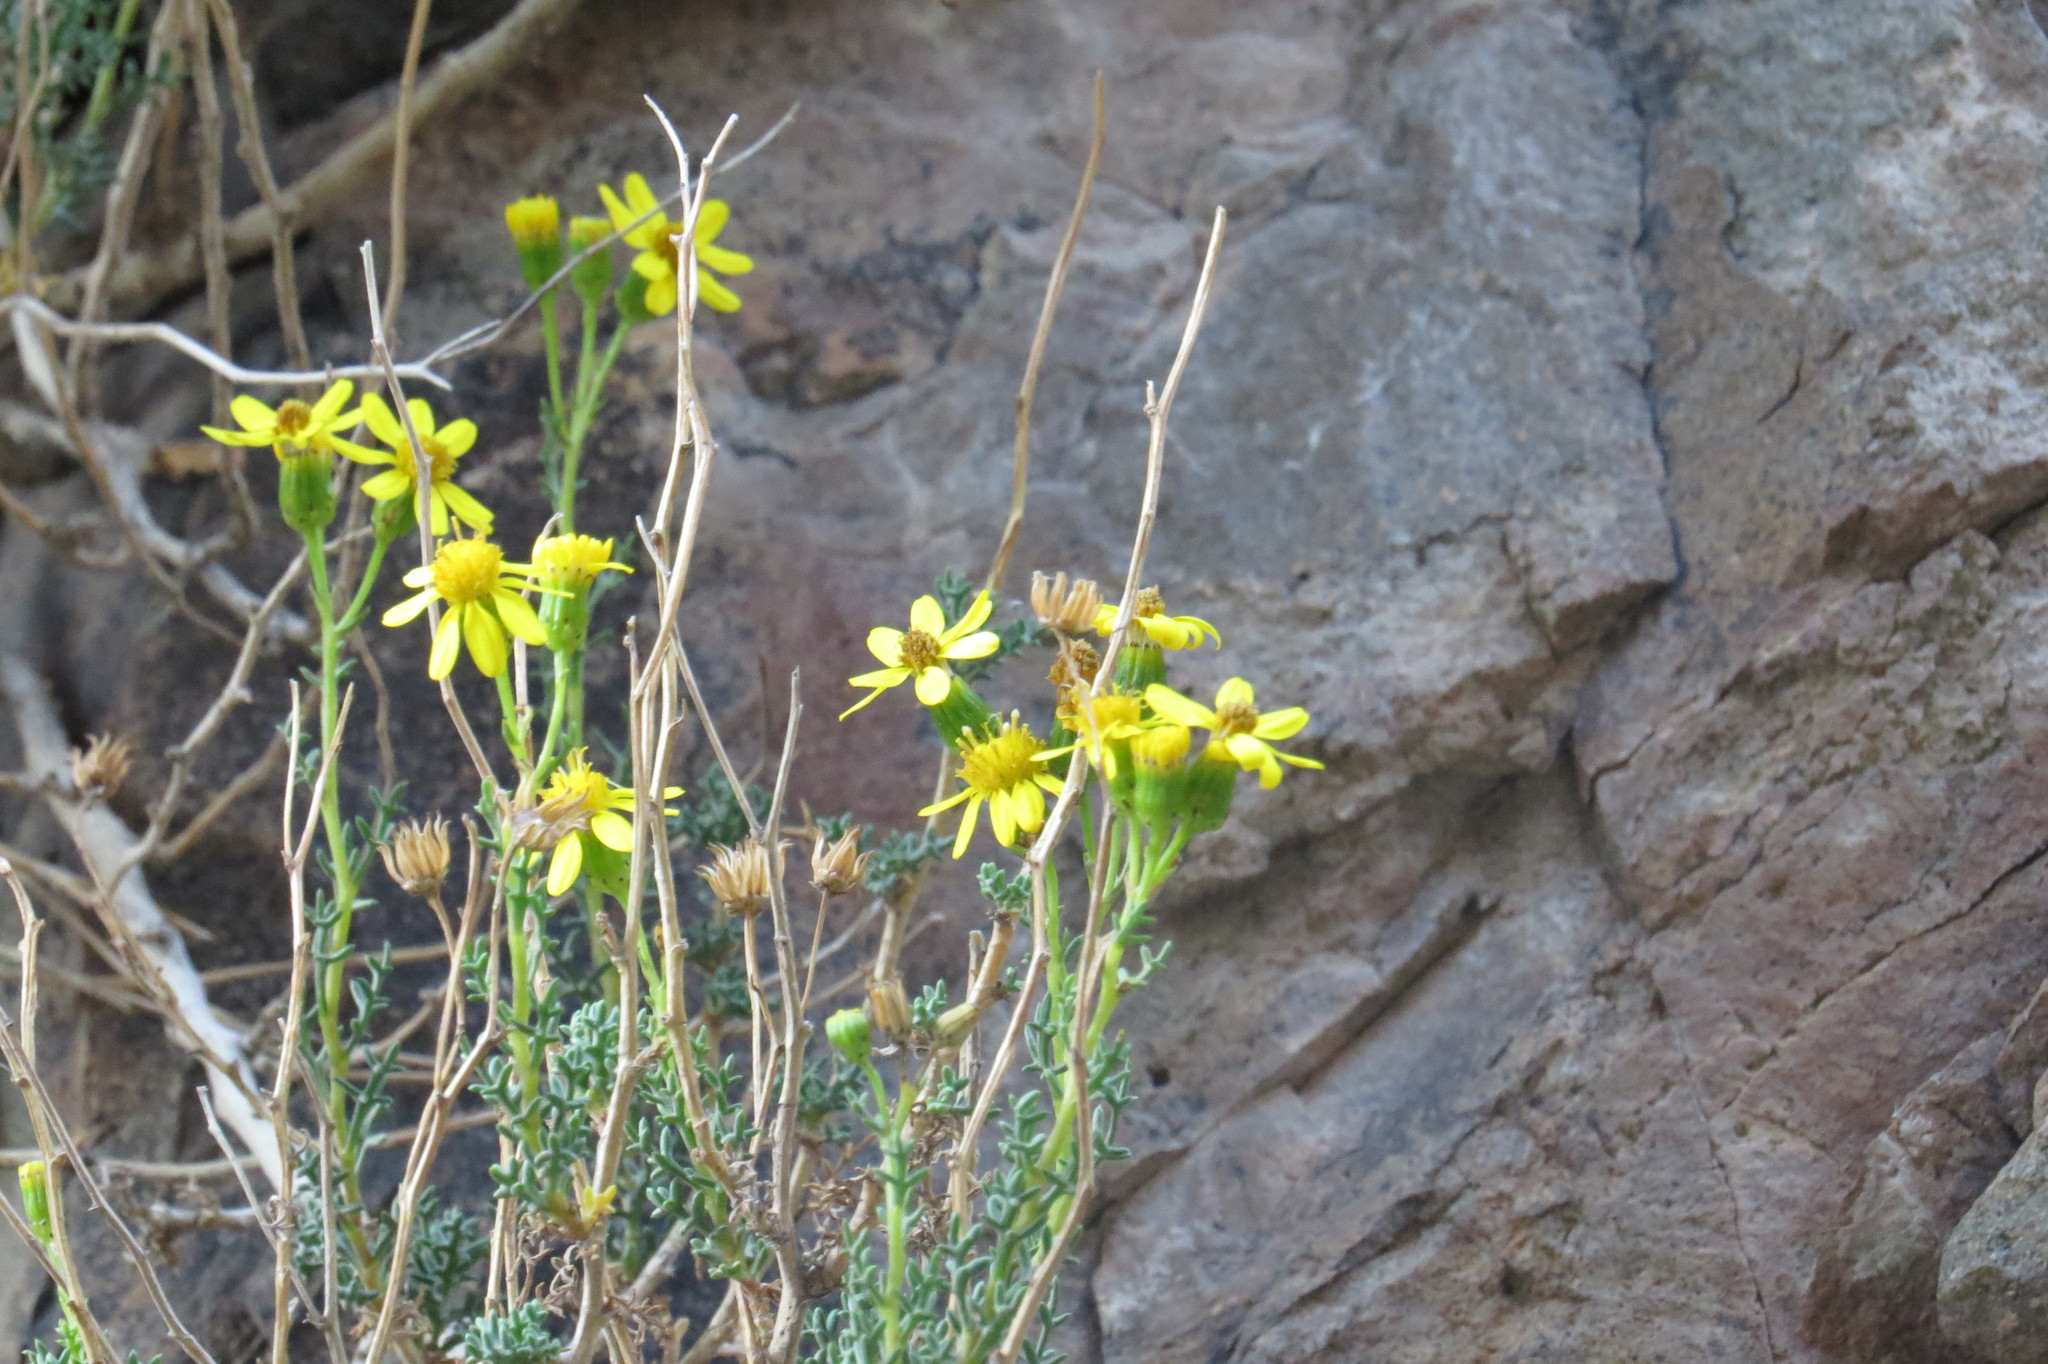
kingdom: Plantae
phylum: Tracheophyta
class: Magnoliopsida
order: Asterales
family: Asteraceae
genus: Senecio
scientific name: Senecio uspallatensis
